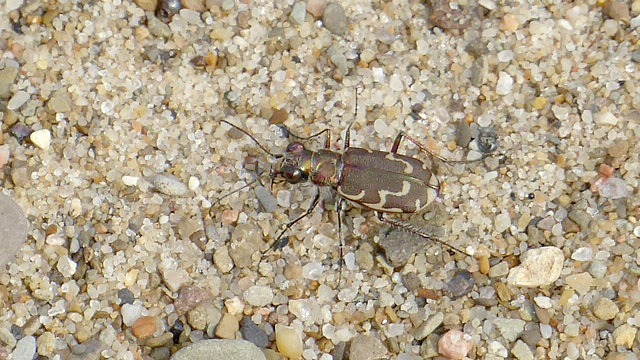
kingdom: Animalia
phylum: Arthropoda
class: Insecta
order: Coleoptera
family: Carabidae
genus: Cicindela
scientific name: Cicindela repanda
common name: Bronzed tiger beetle
